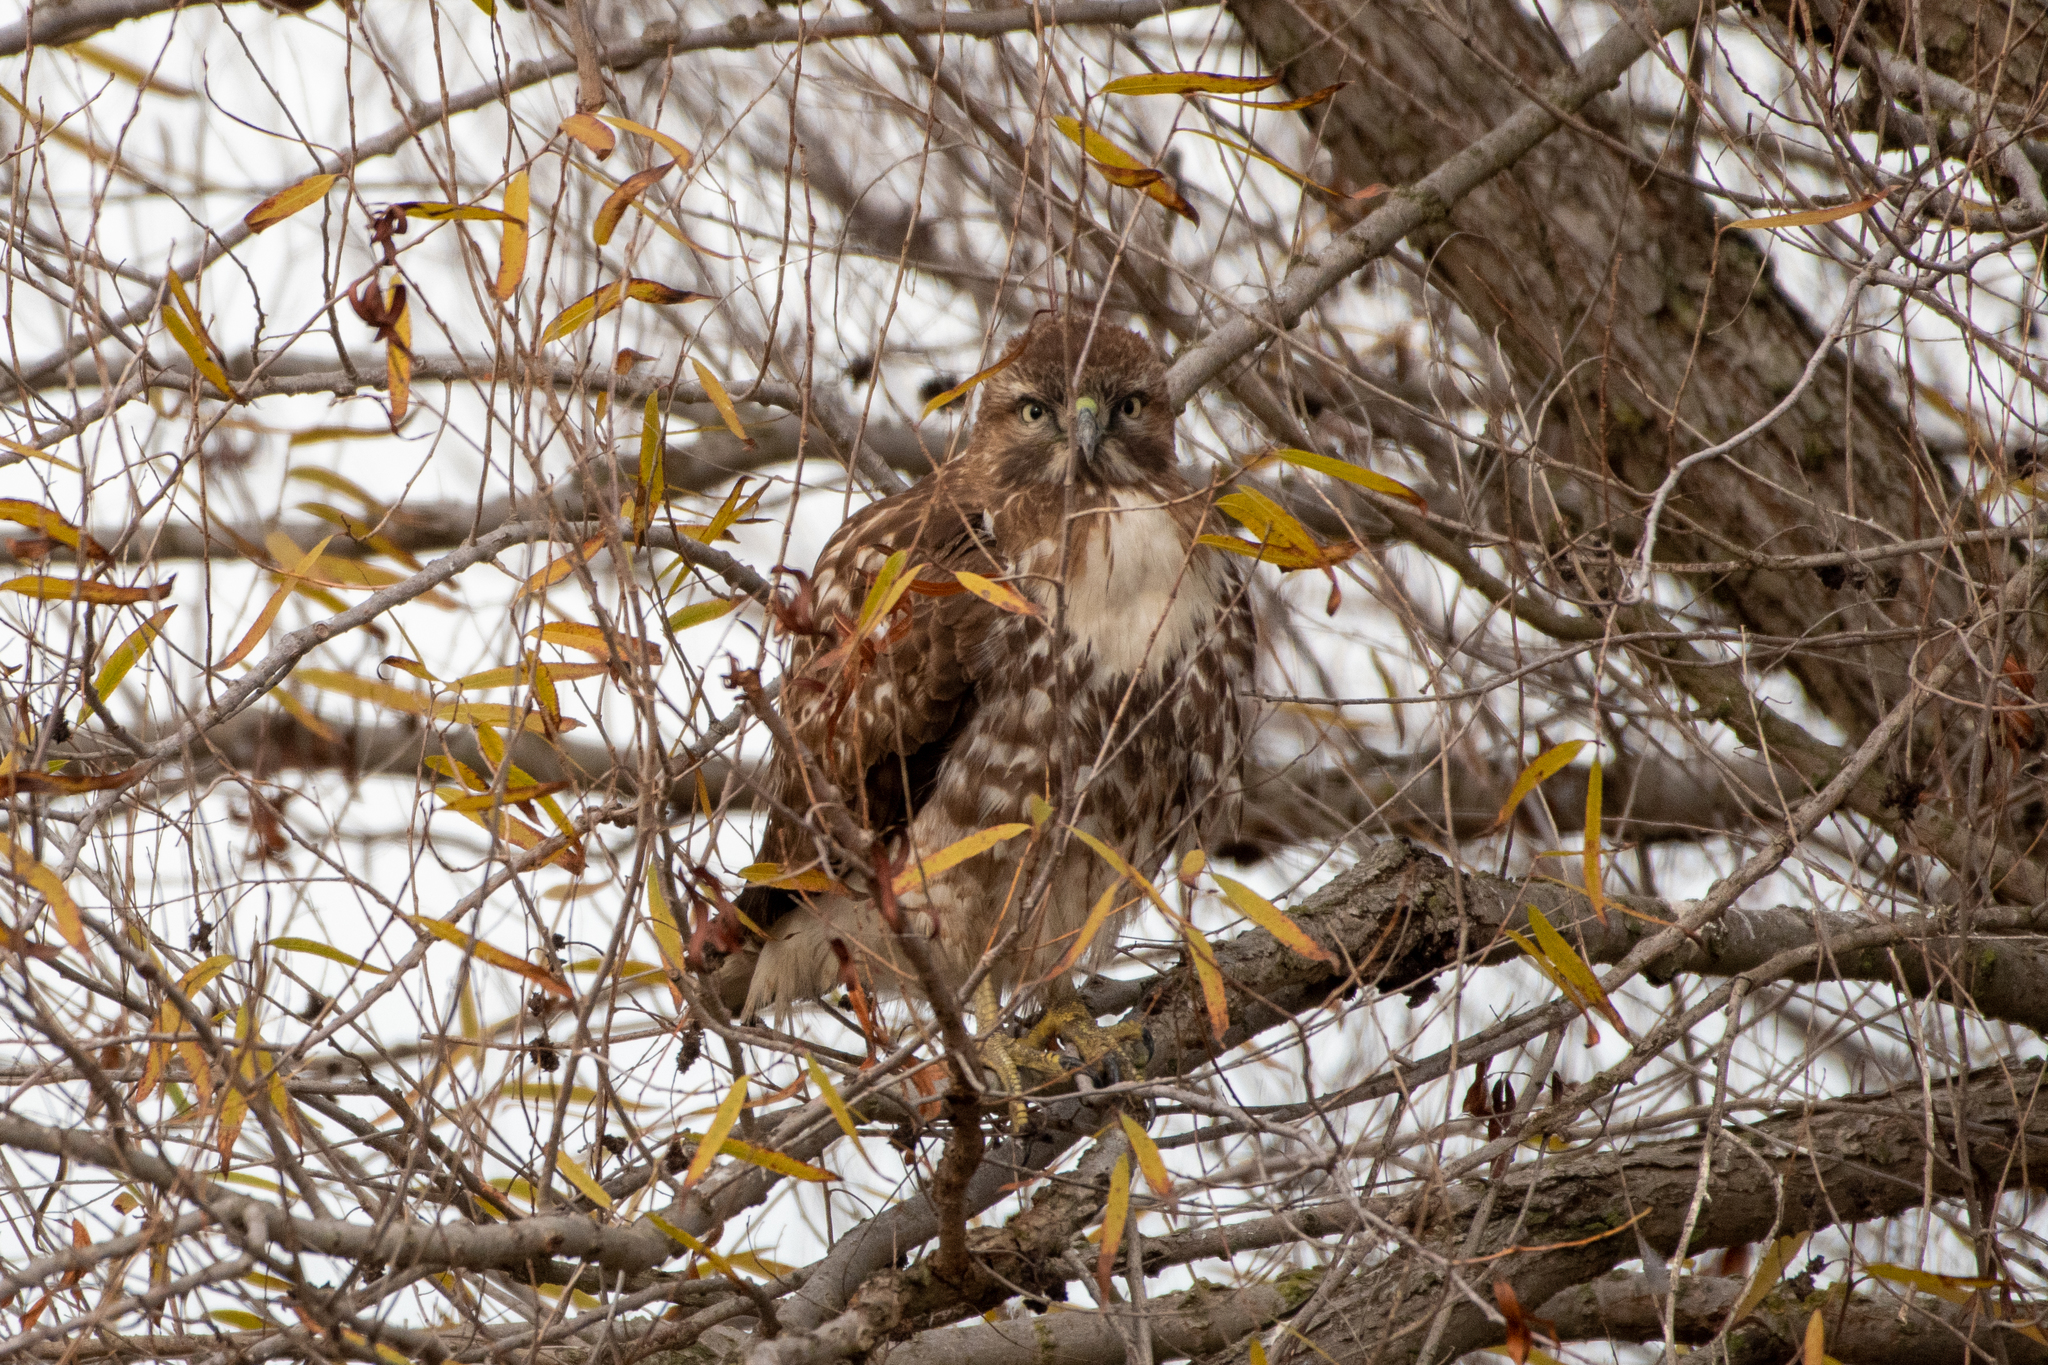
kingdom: Animalia
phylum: Chordata
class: Aves
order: Accipitriformes
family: Accipitridae
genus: Buteo
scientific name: Buteo jamaicensis
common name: Red-tailed hawk
